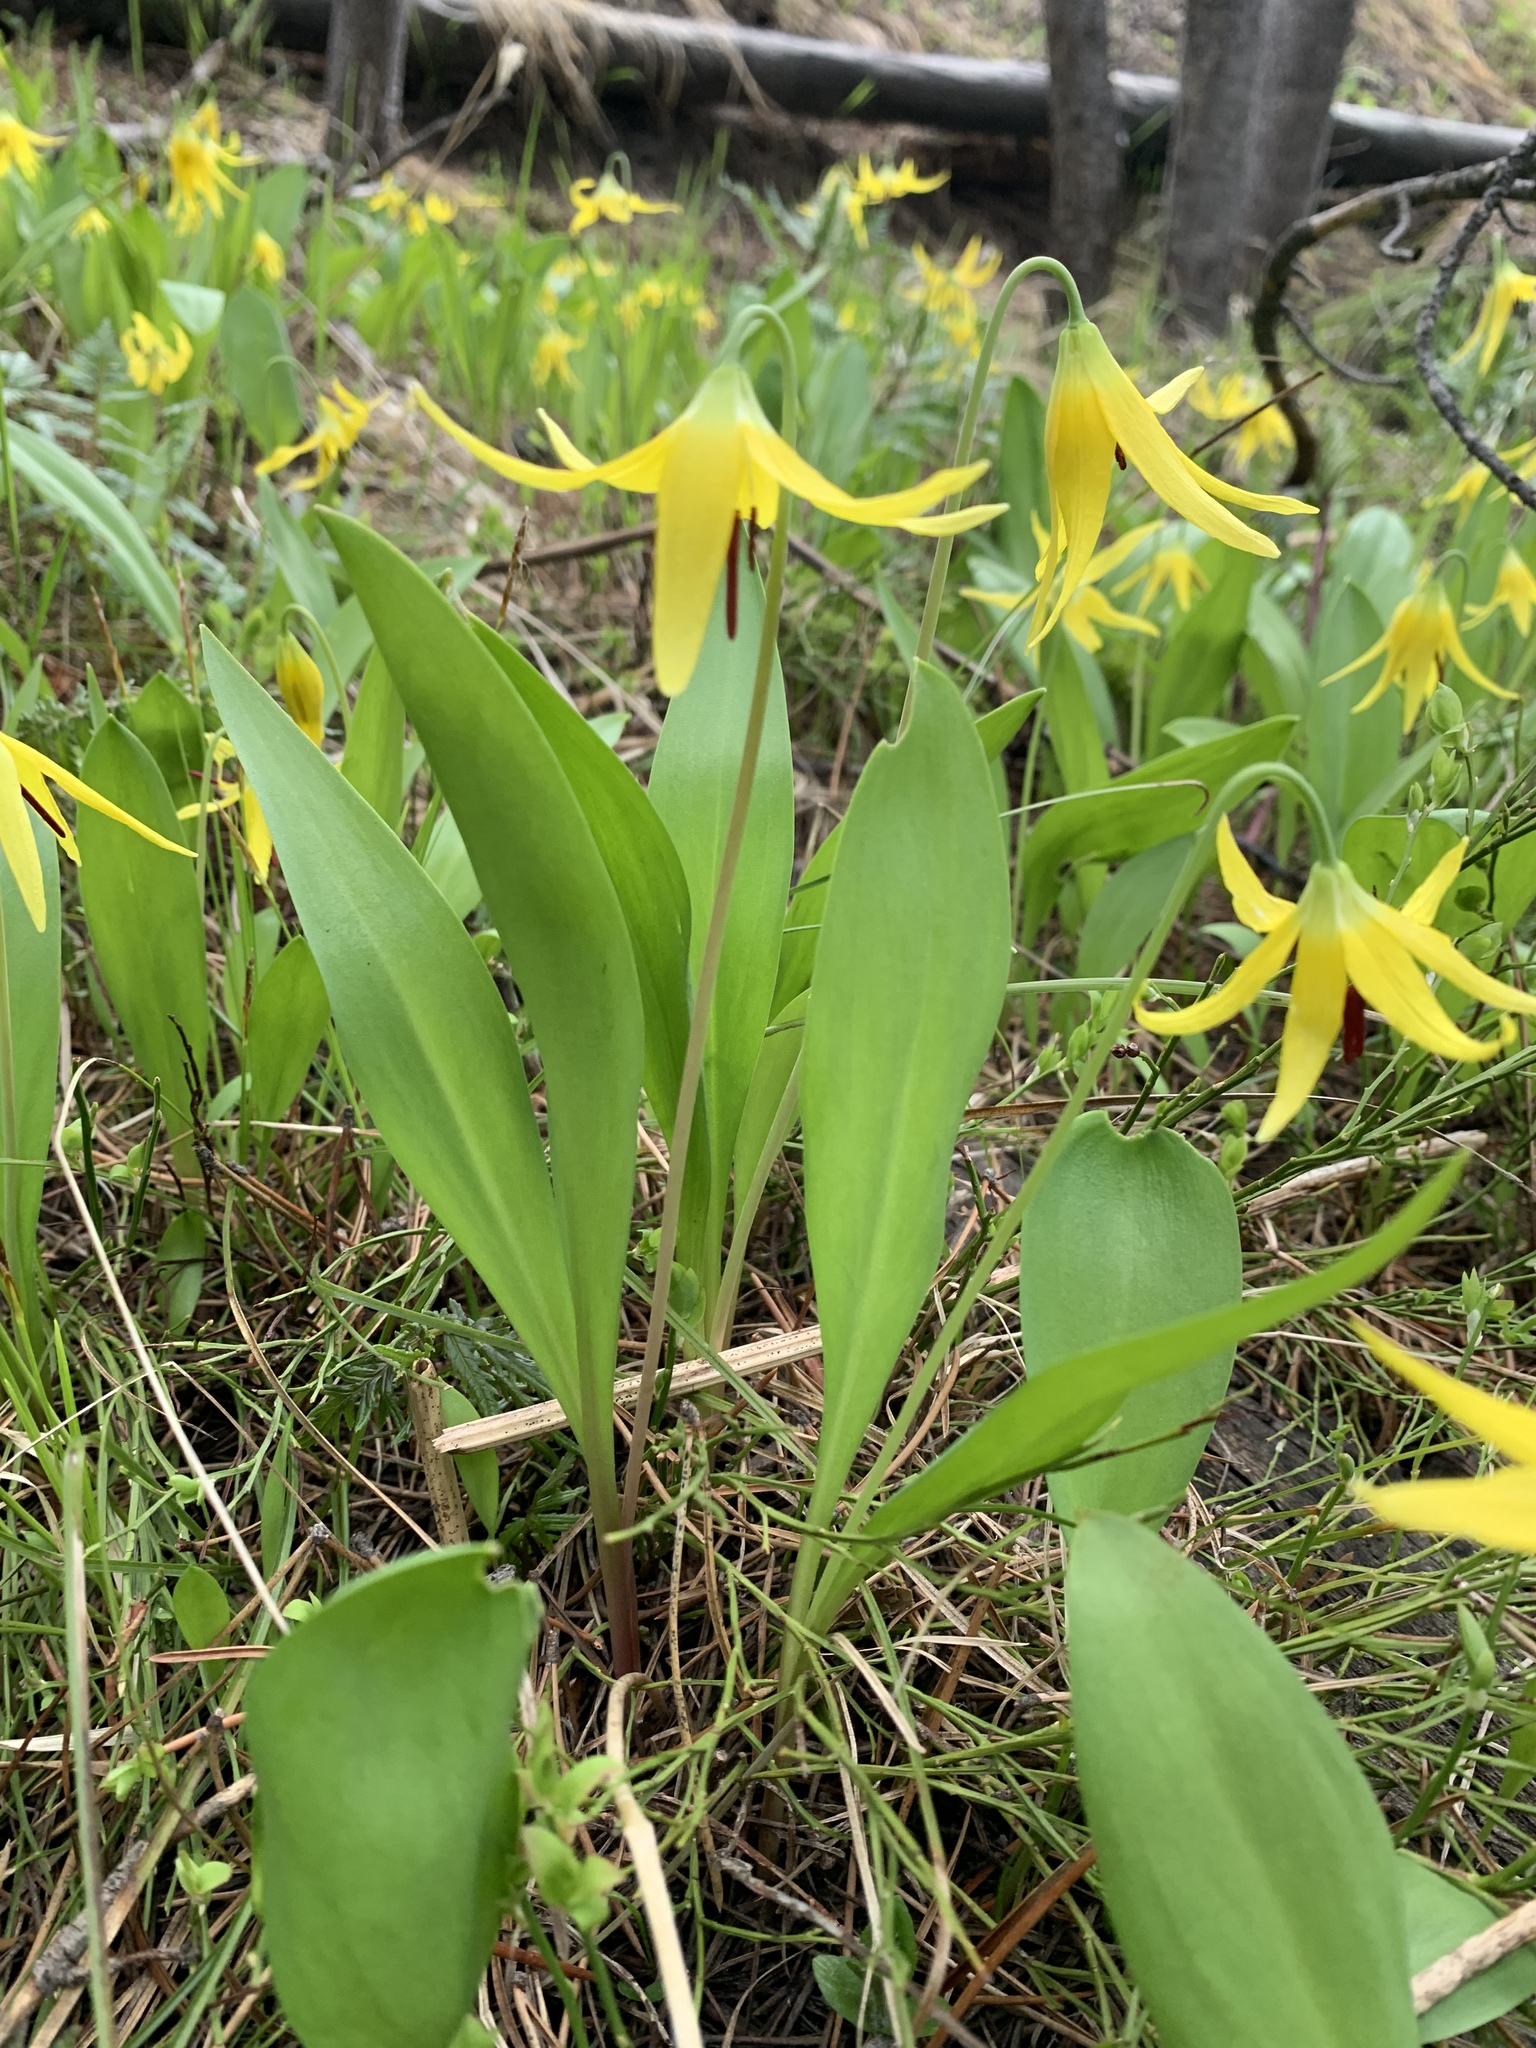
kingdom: Plantae
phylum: Tracheophyta
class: Liliopsida
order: Liliales
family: Liliaceae
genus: Erythronium
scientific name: Erythronium grandiflorum
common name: Avalanche-lily
